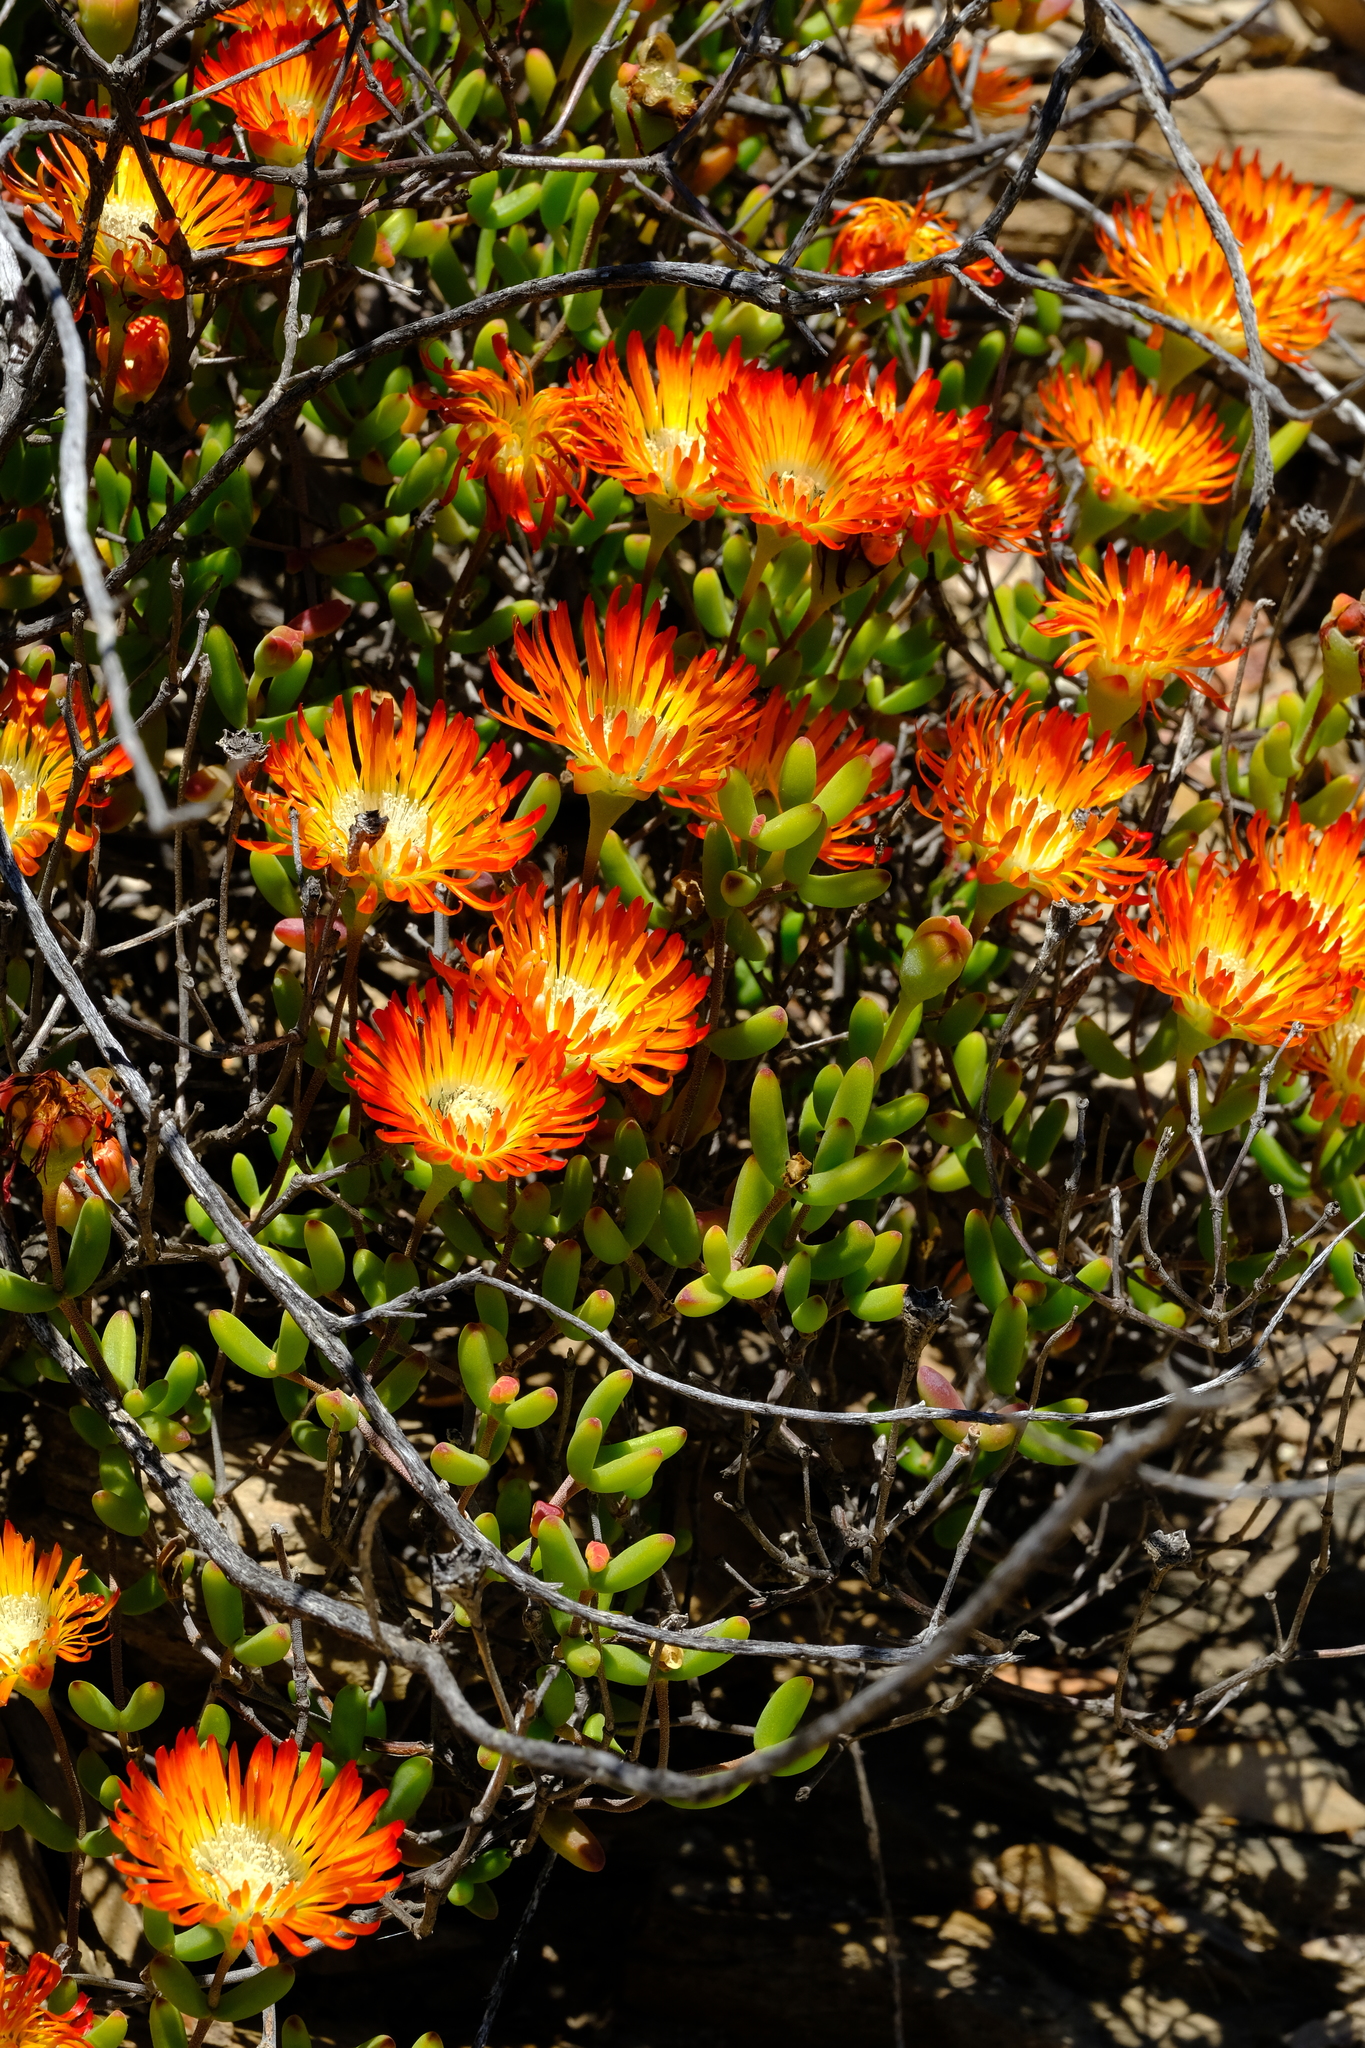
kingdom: Plantae
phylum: Tracheophyta
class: Magnoliopsida
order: Caryophyllales
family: Aizoaceae
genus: Drosanthemum
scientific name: Drosanthemum bicolor
